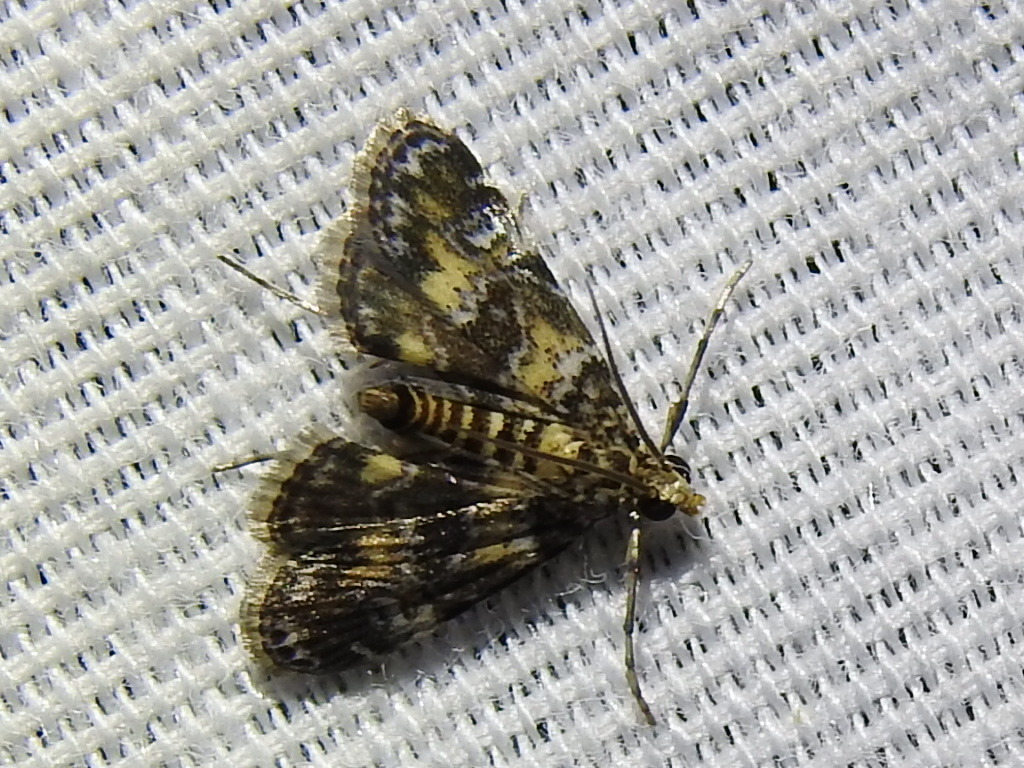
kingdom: Animalia
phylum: Arthropoda
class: Insecta
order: Lepidoptera
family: Crambidae
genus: Elophila
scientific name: Elophila obliteralis
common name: Waterlily leafcutter moth
